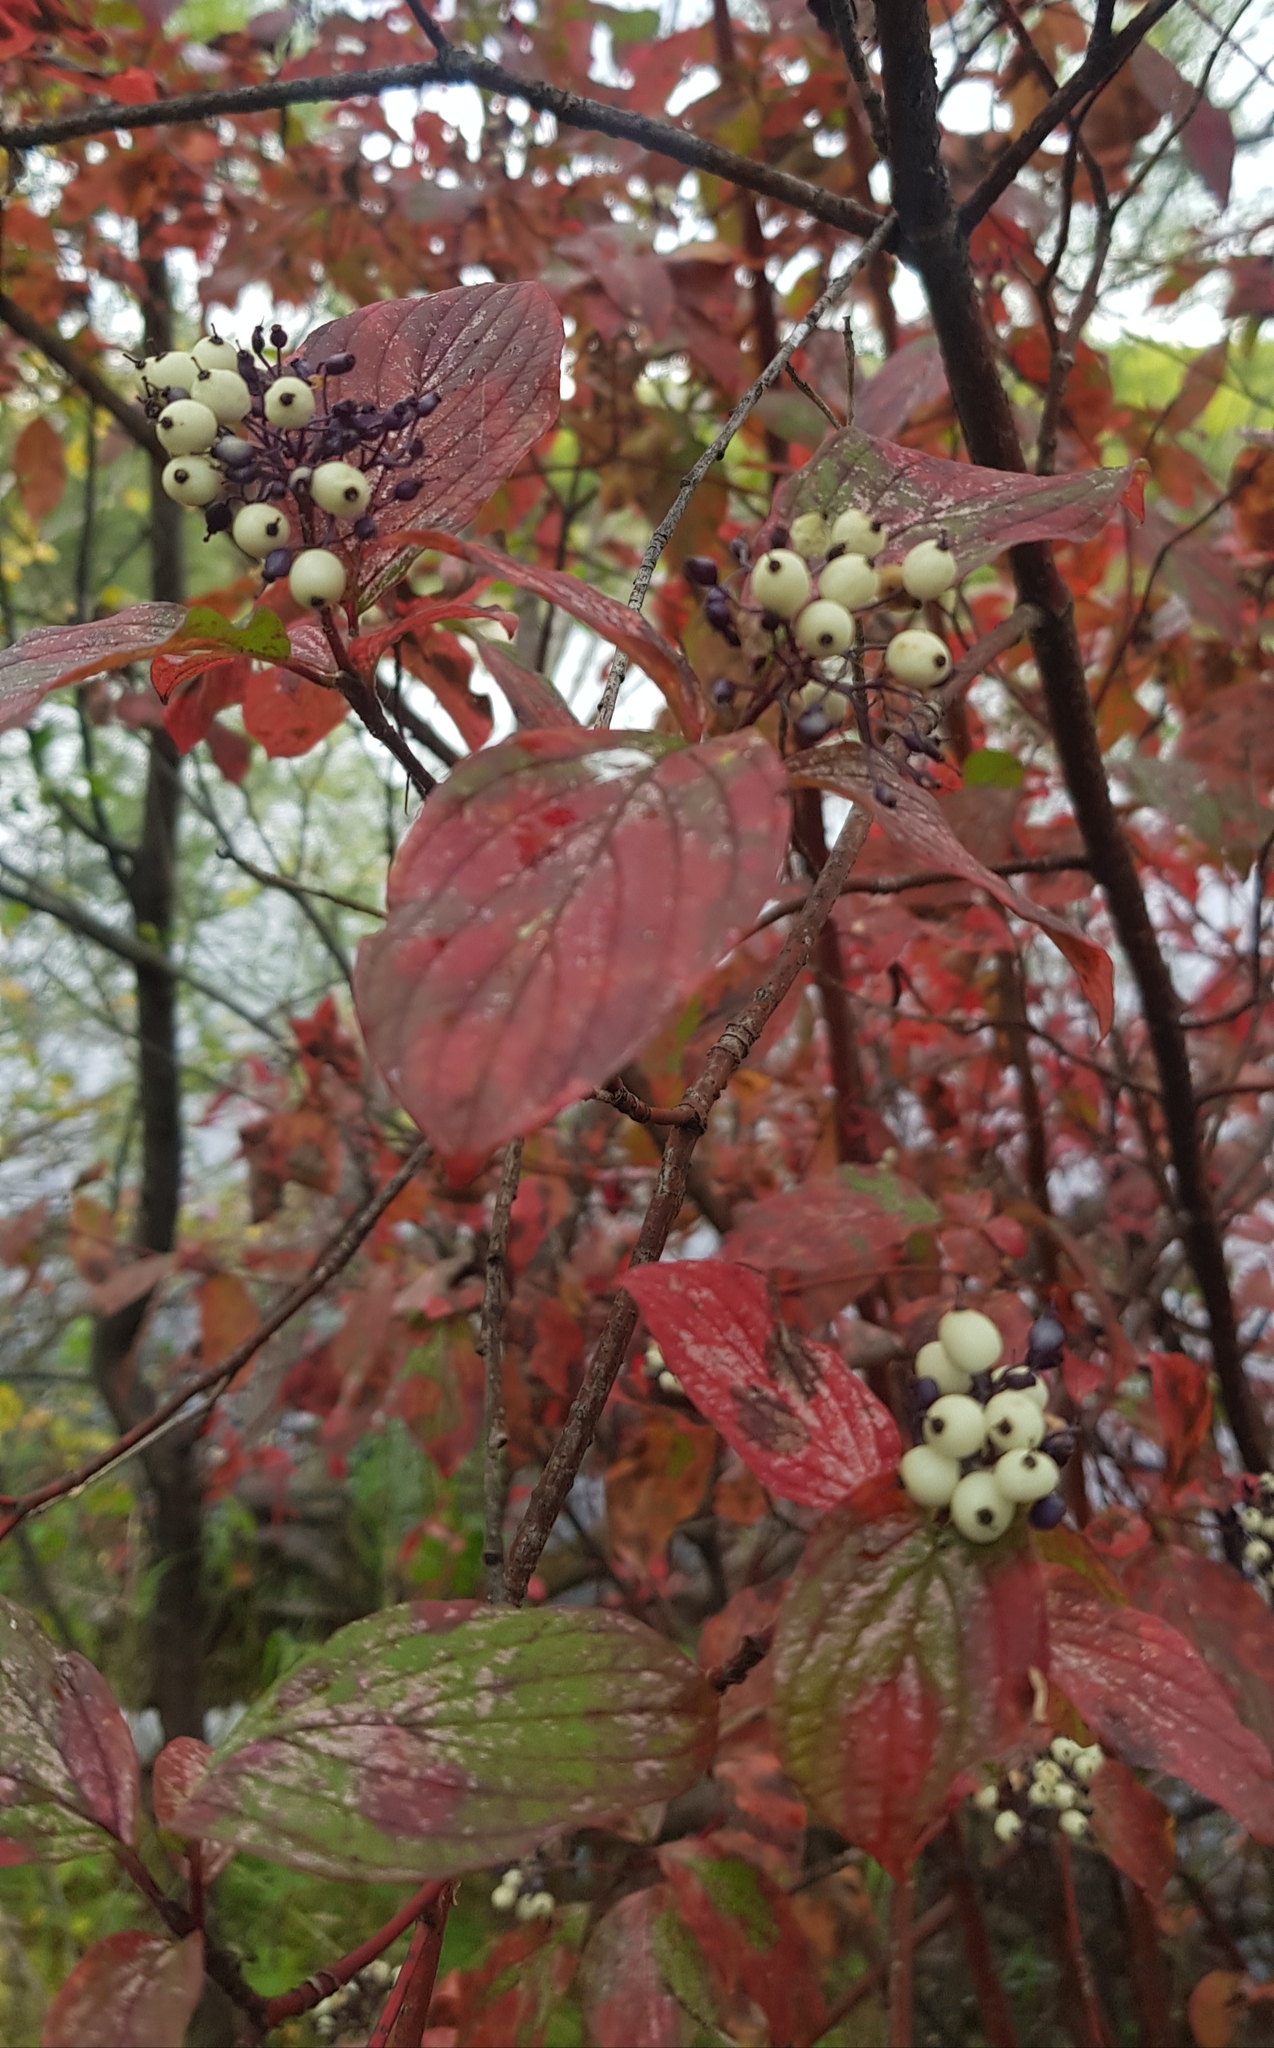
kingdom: Plantae
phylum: Tracheophyta
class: Magnoliopsida
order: Cornales
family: Cornaceae
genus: Cornus
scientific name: Cornus alba
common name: White dogwood
